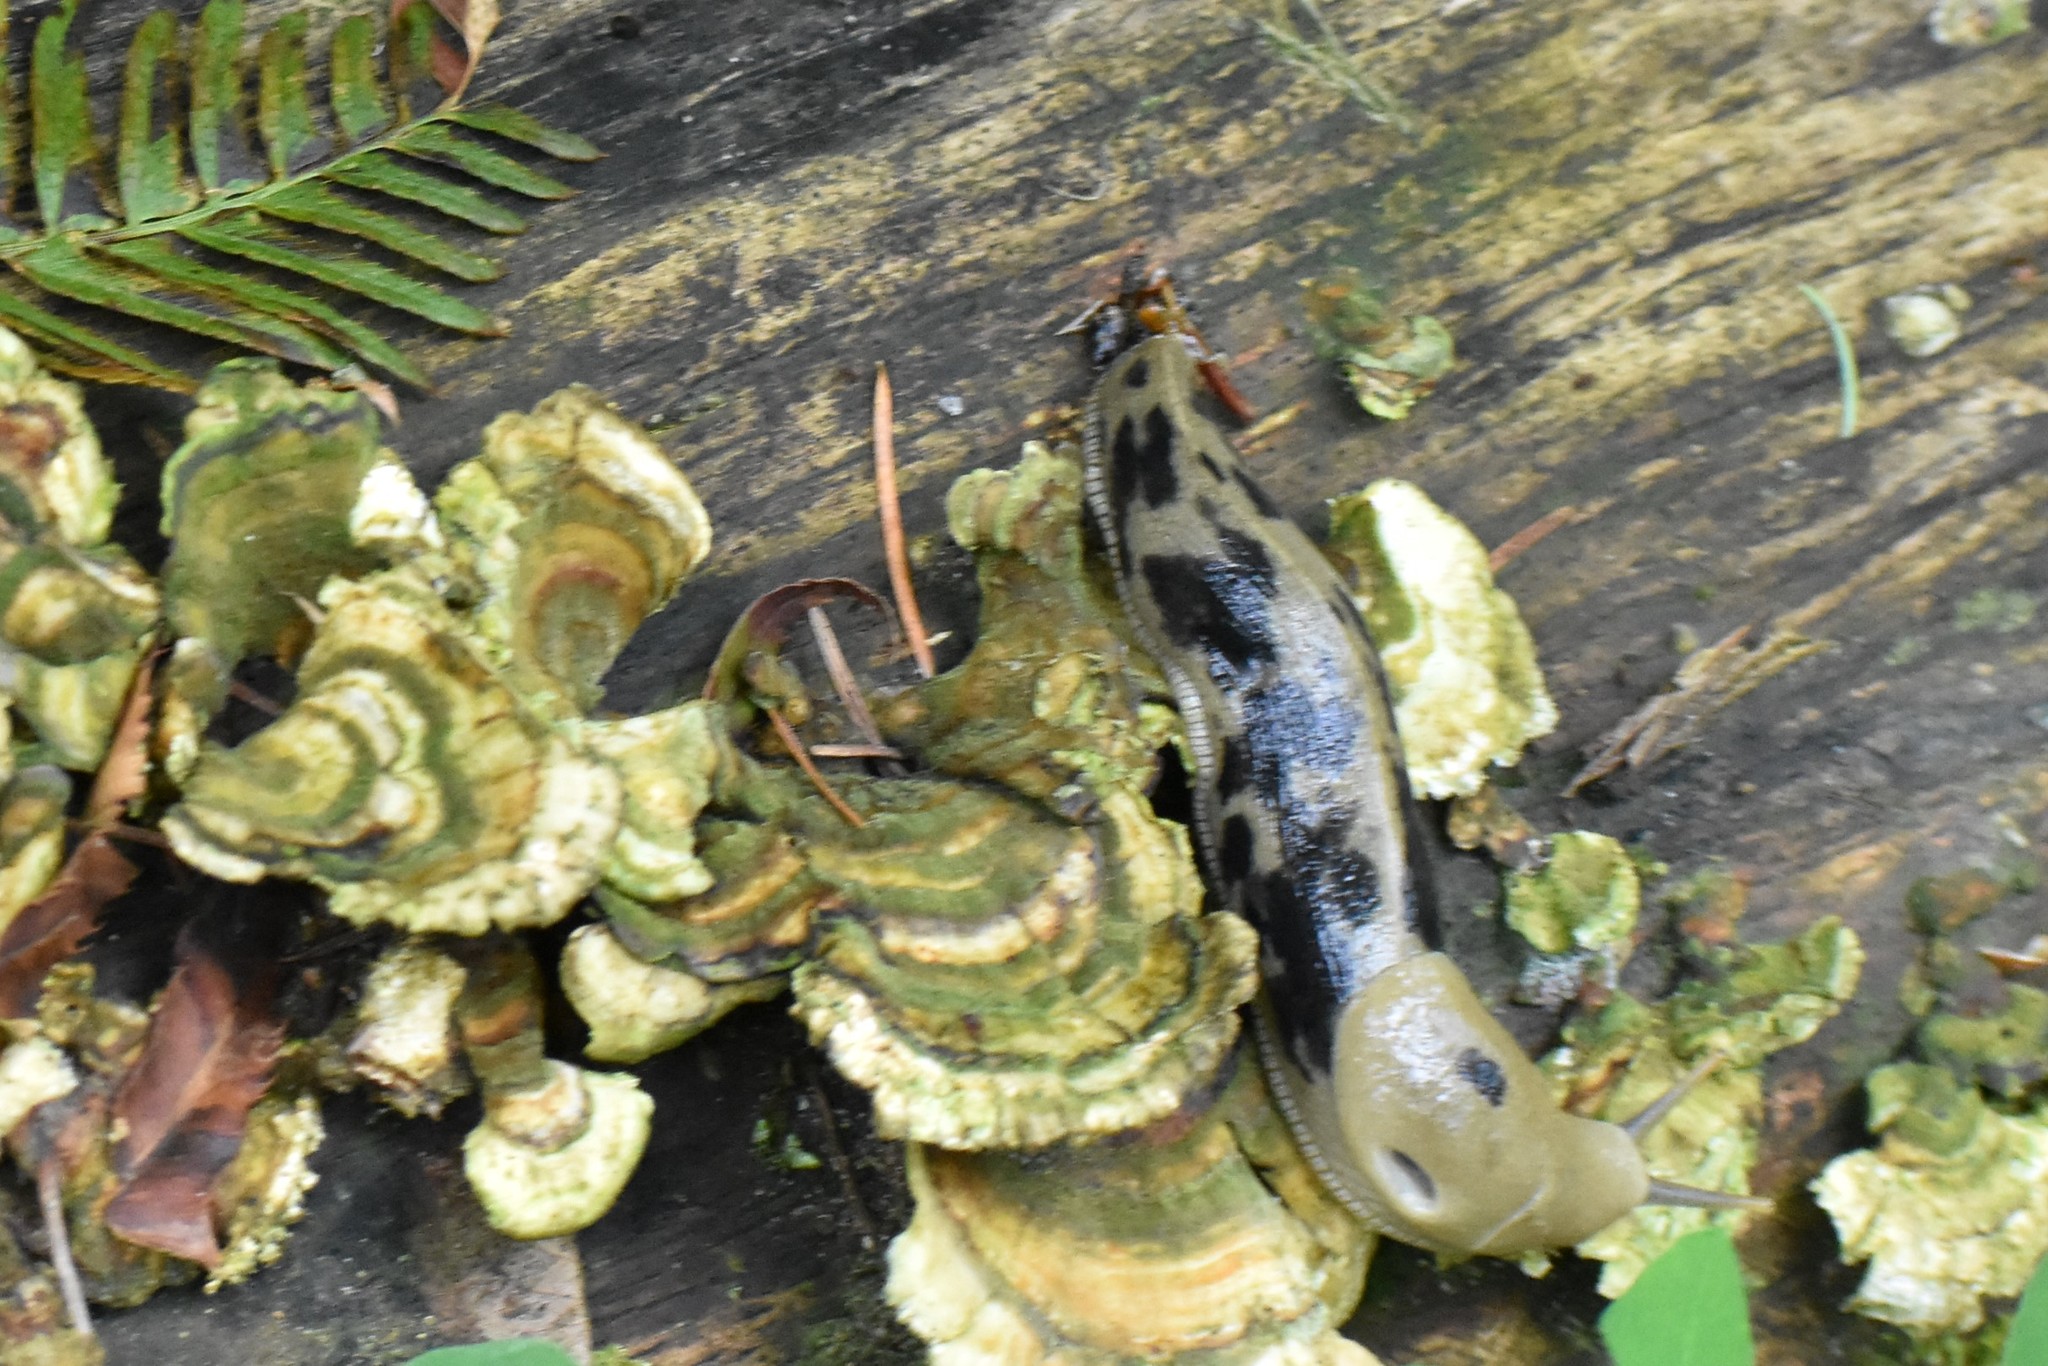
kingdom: Animalia
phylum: Mollusca
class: Gastropoda
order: Stylommatophora
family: Ariolimacidae
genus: Ariolimax
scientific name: Ariolimax columbianus
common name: Pacific banana slug
